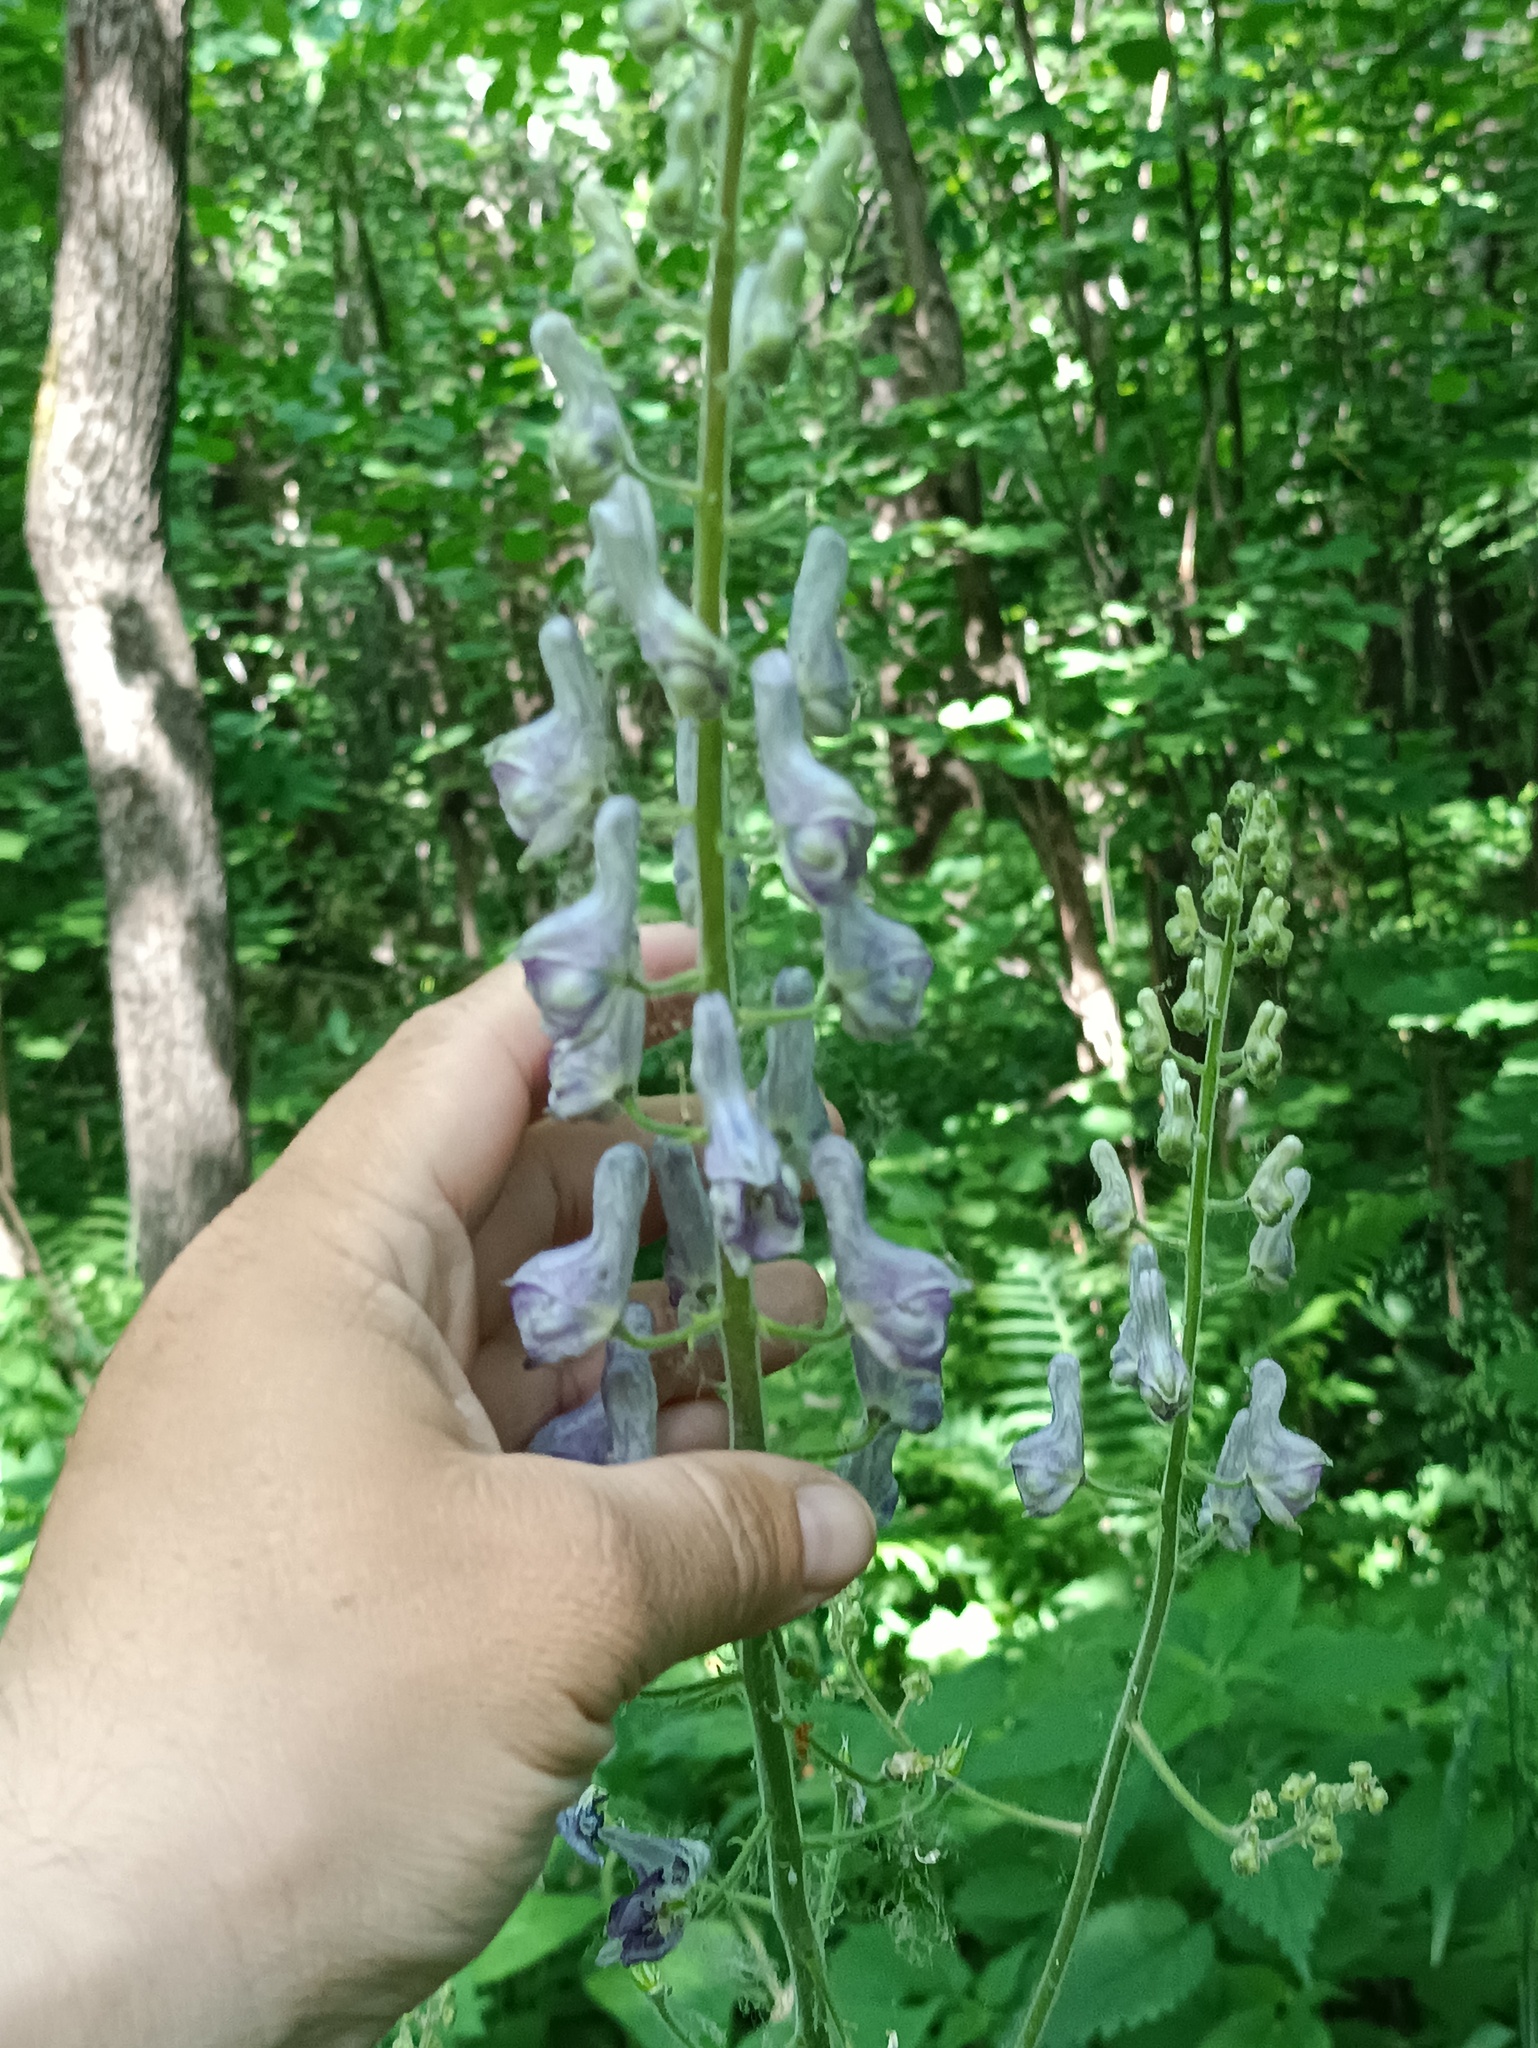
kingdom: Plantae
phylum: Tracheophyta
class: Magnoliopsida
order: Ranunculales
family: Ranunculaceae
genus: Aconitum
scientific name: Aconitum septentrionale
